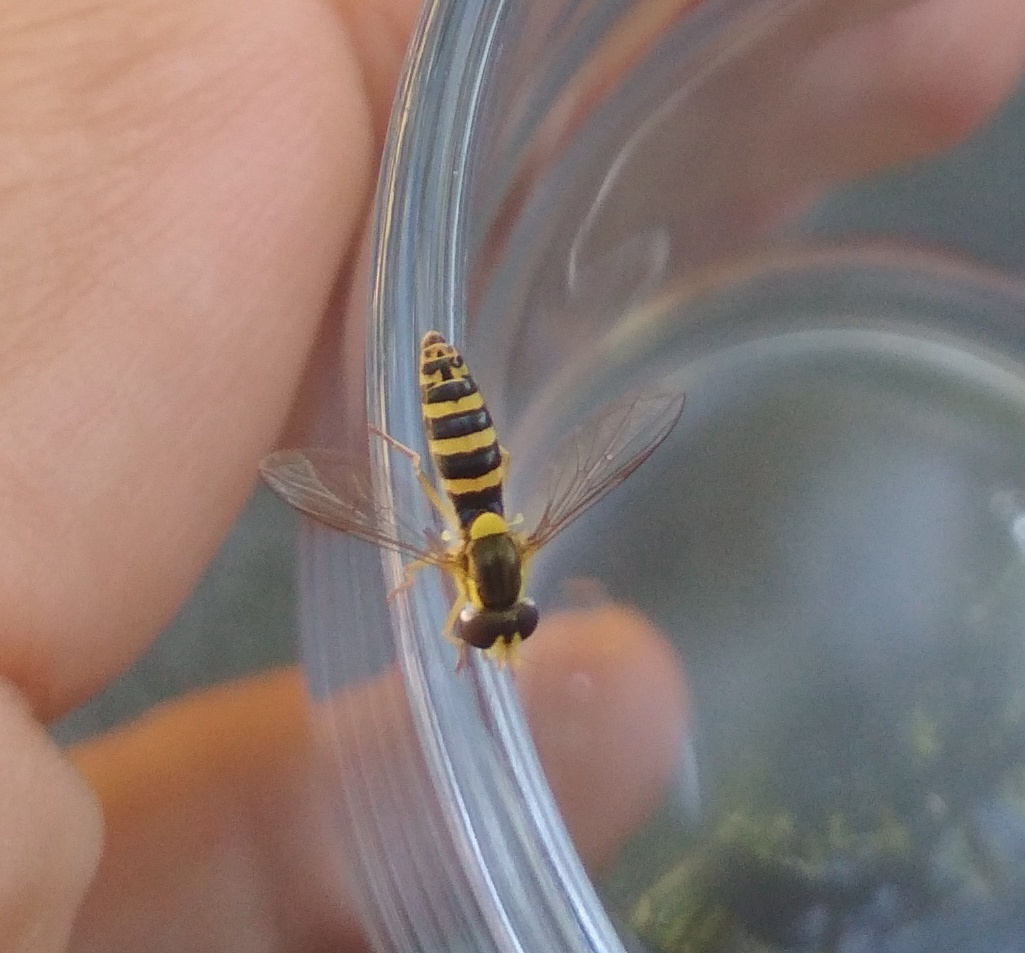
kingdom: Animalia
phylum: Arthropoda
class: Insecta
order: Diptera
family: Syrphidae
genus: Sphaerophoria
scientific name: Sphaerophoria
